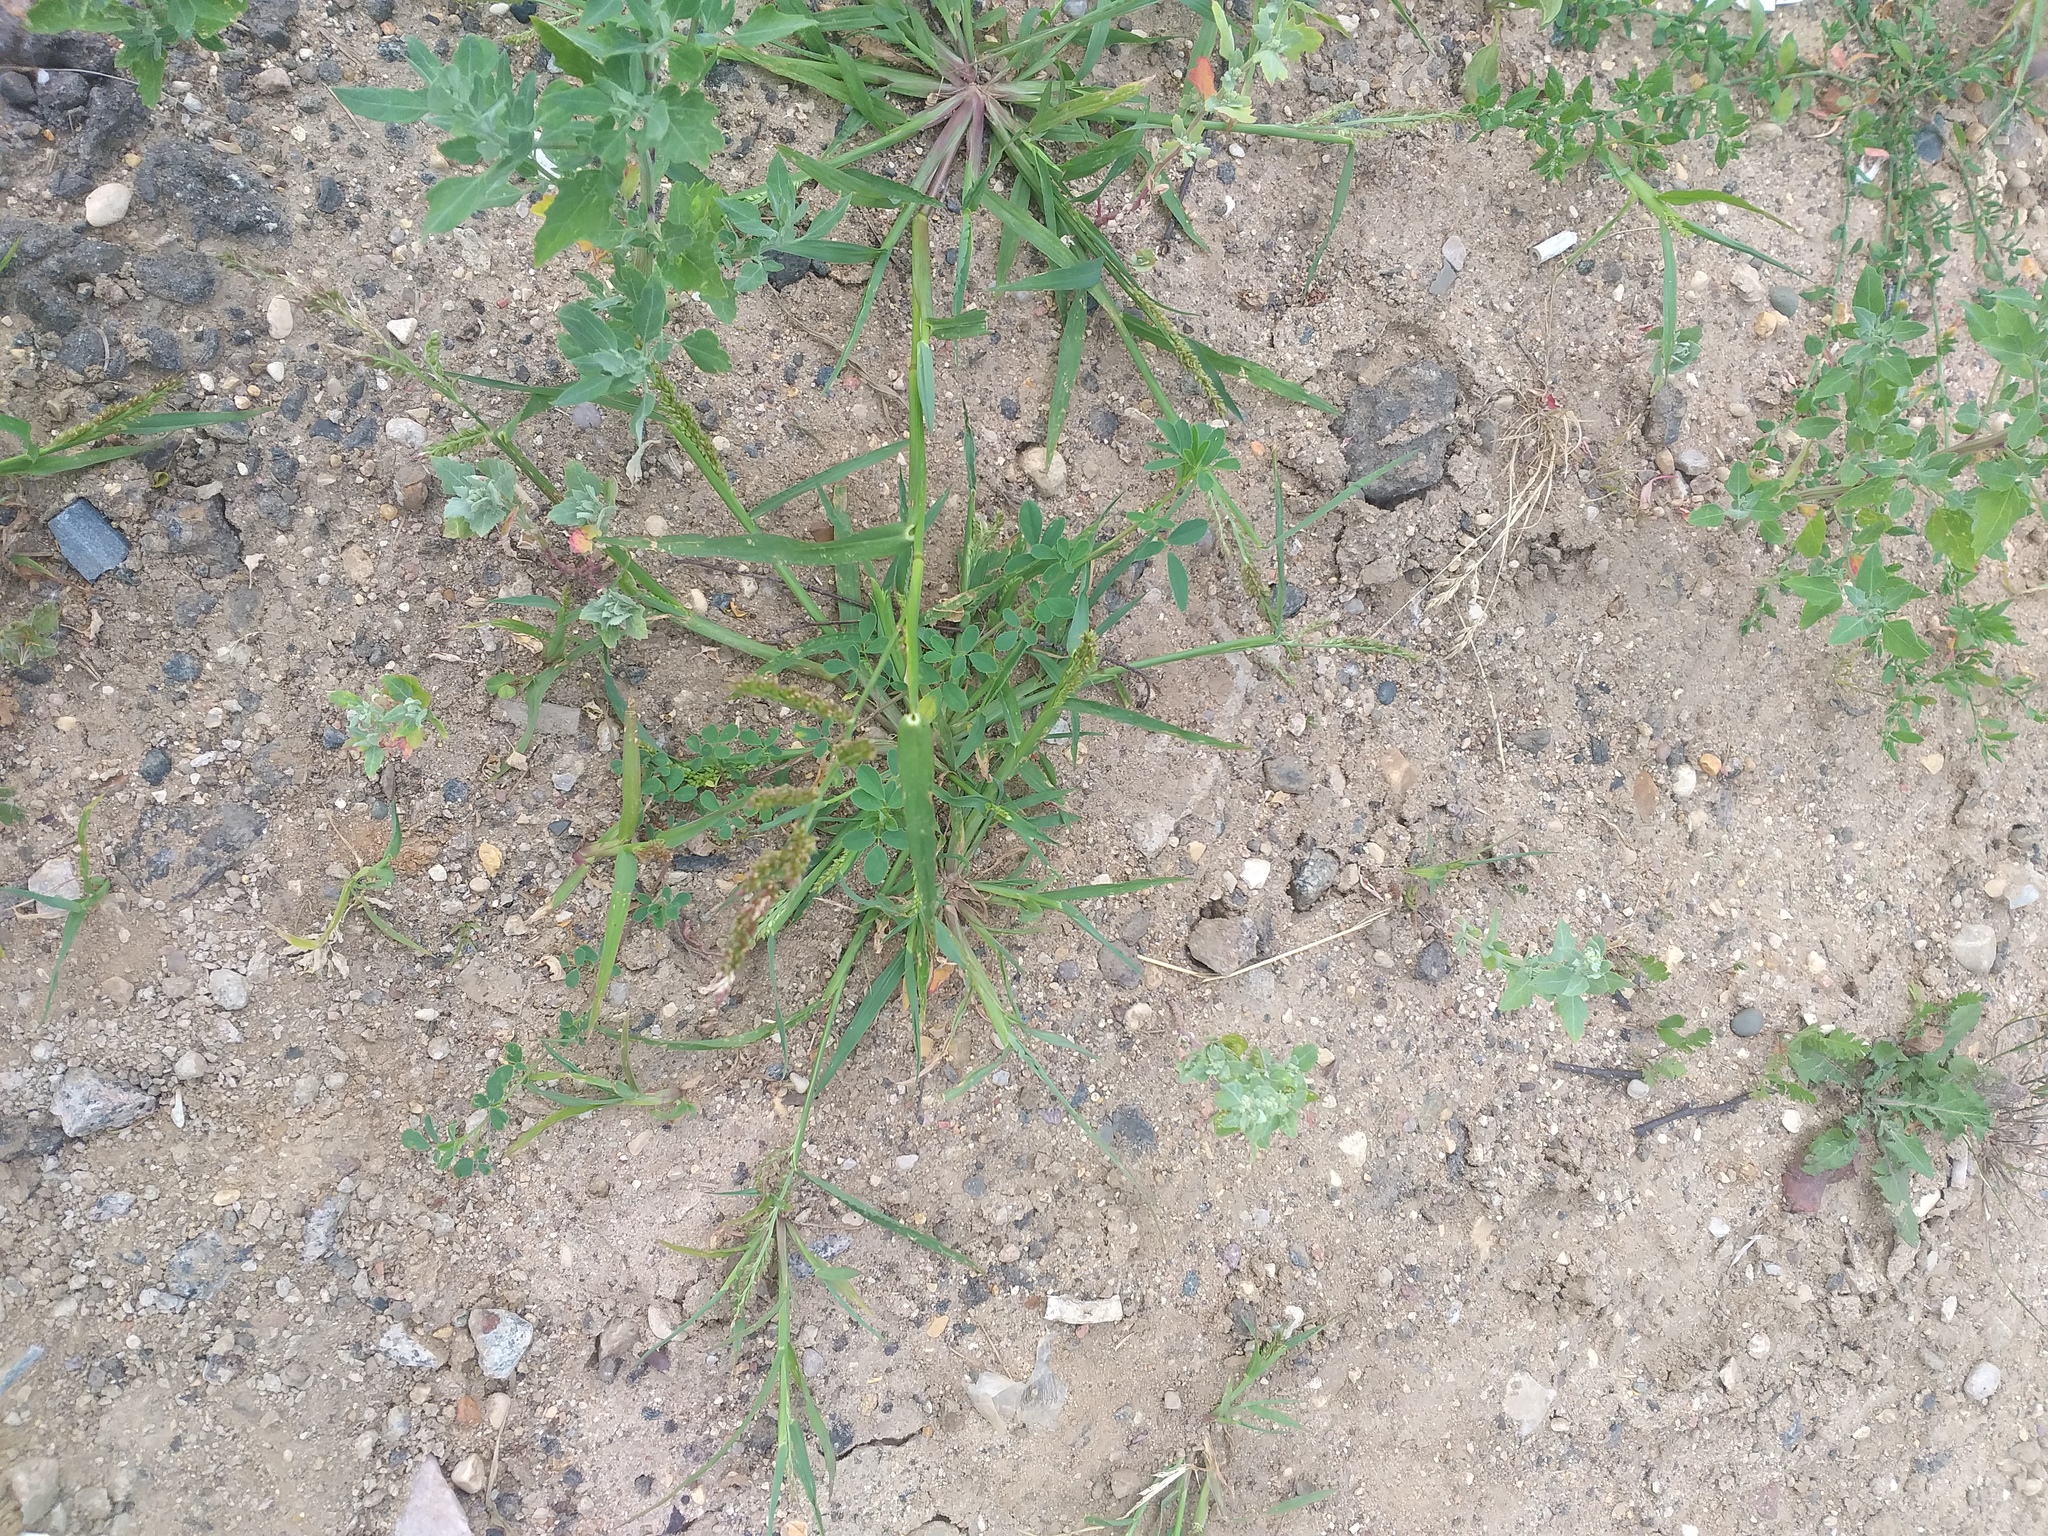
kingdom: Plantae
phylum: Tracheophyta
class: Liliopsida
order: Poales
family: Poaceae
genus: Echinochloa
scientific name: Echinochloa crus-galli
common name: Cockspur
